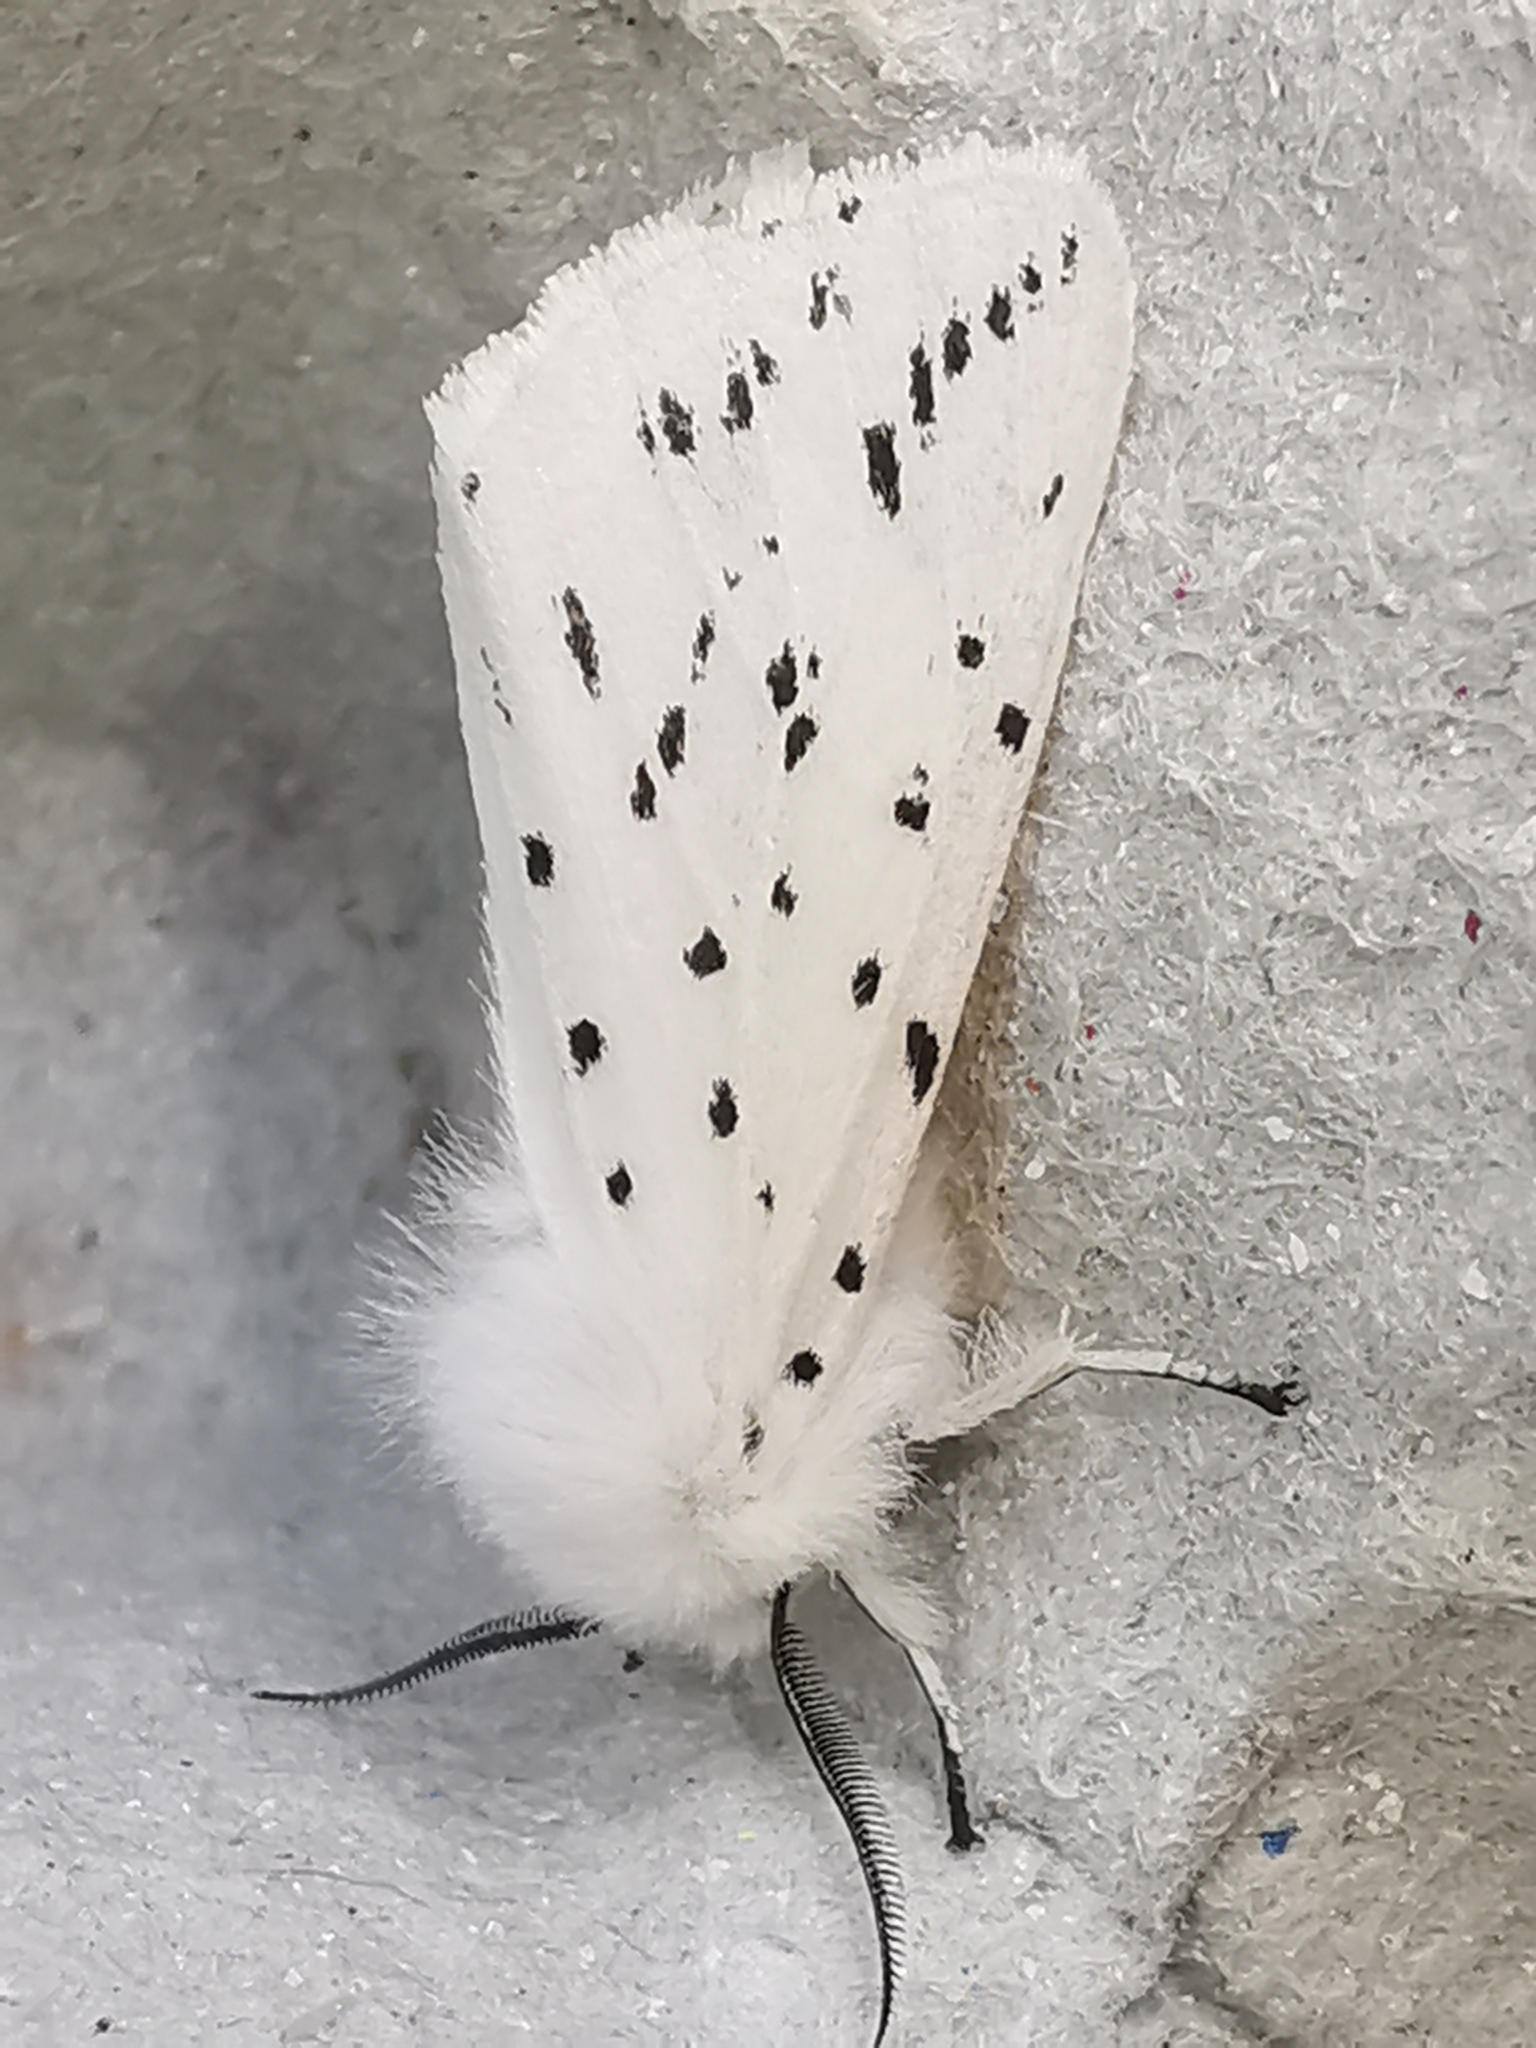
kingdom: Animalia
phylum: Arthropoda
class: Insecta
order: Lepidoptera
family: Erebidae
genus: Spilosoma
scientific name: Spilosoma lubricipeda
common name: White ermine
